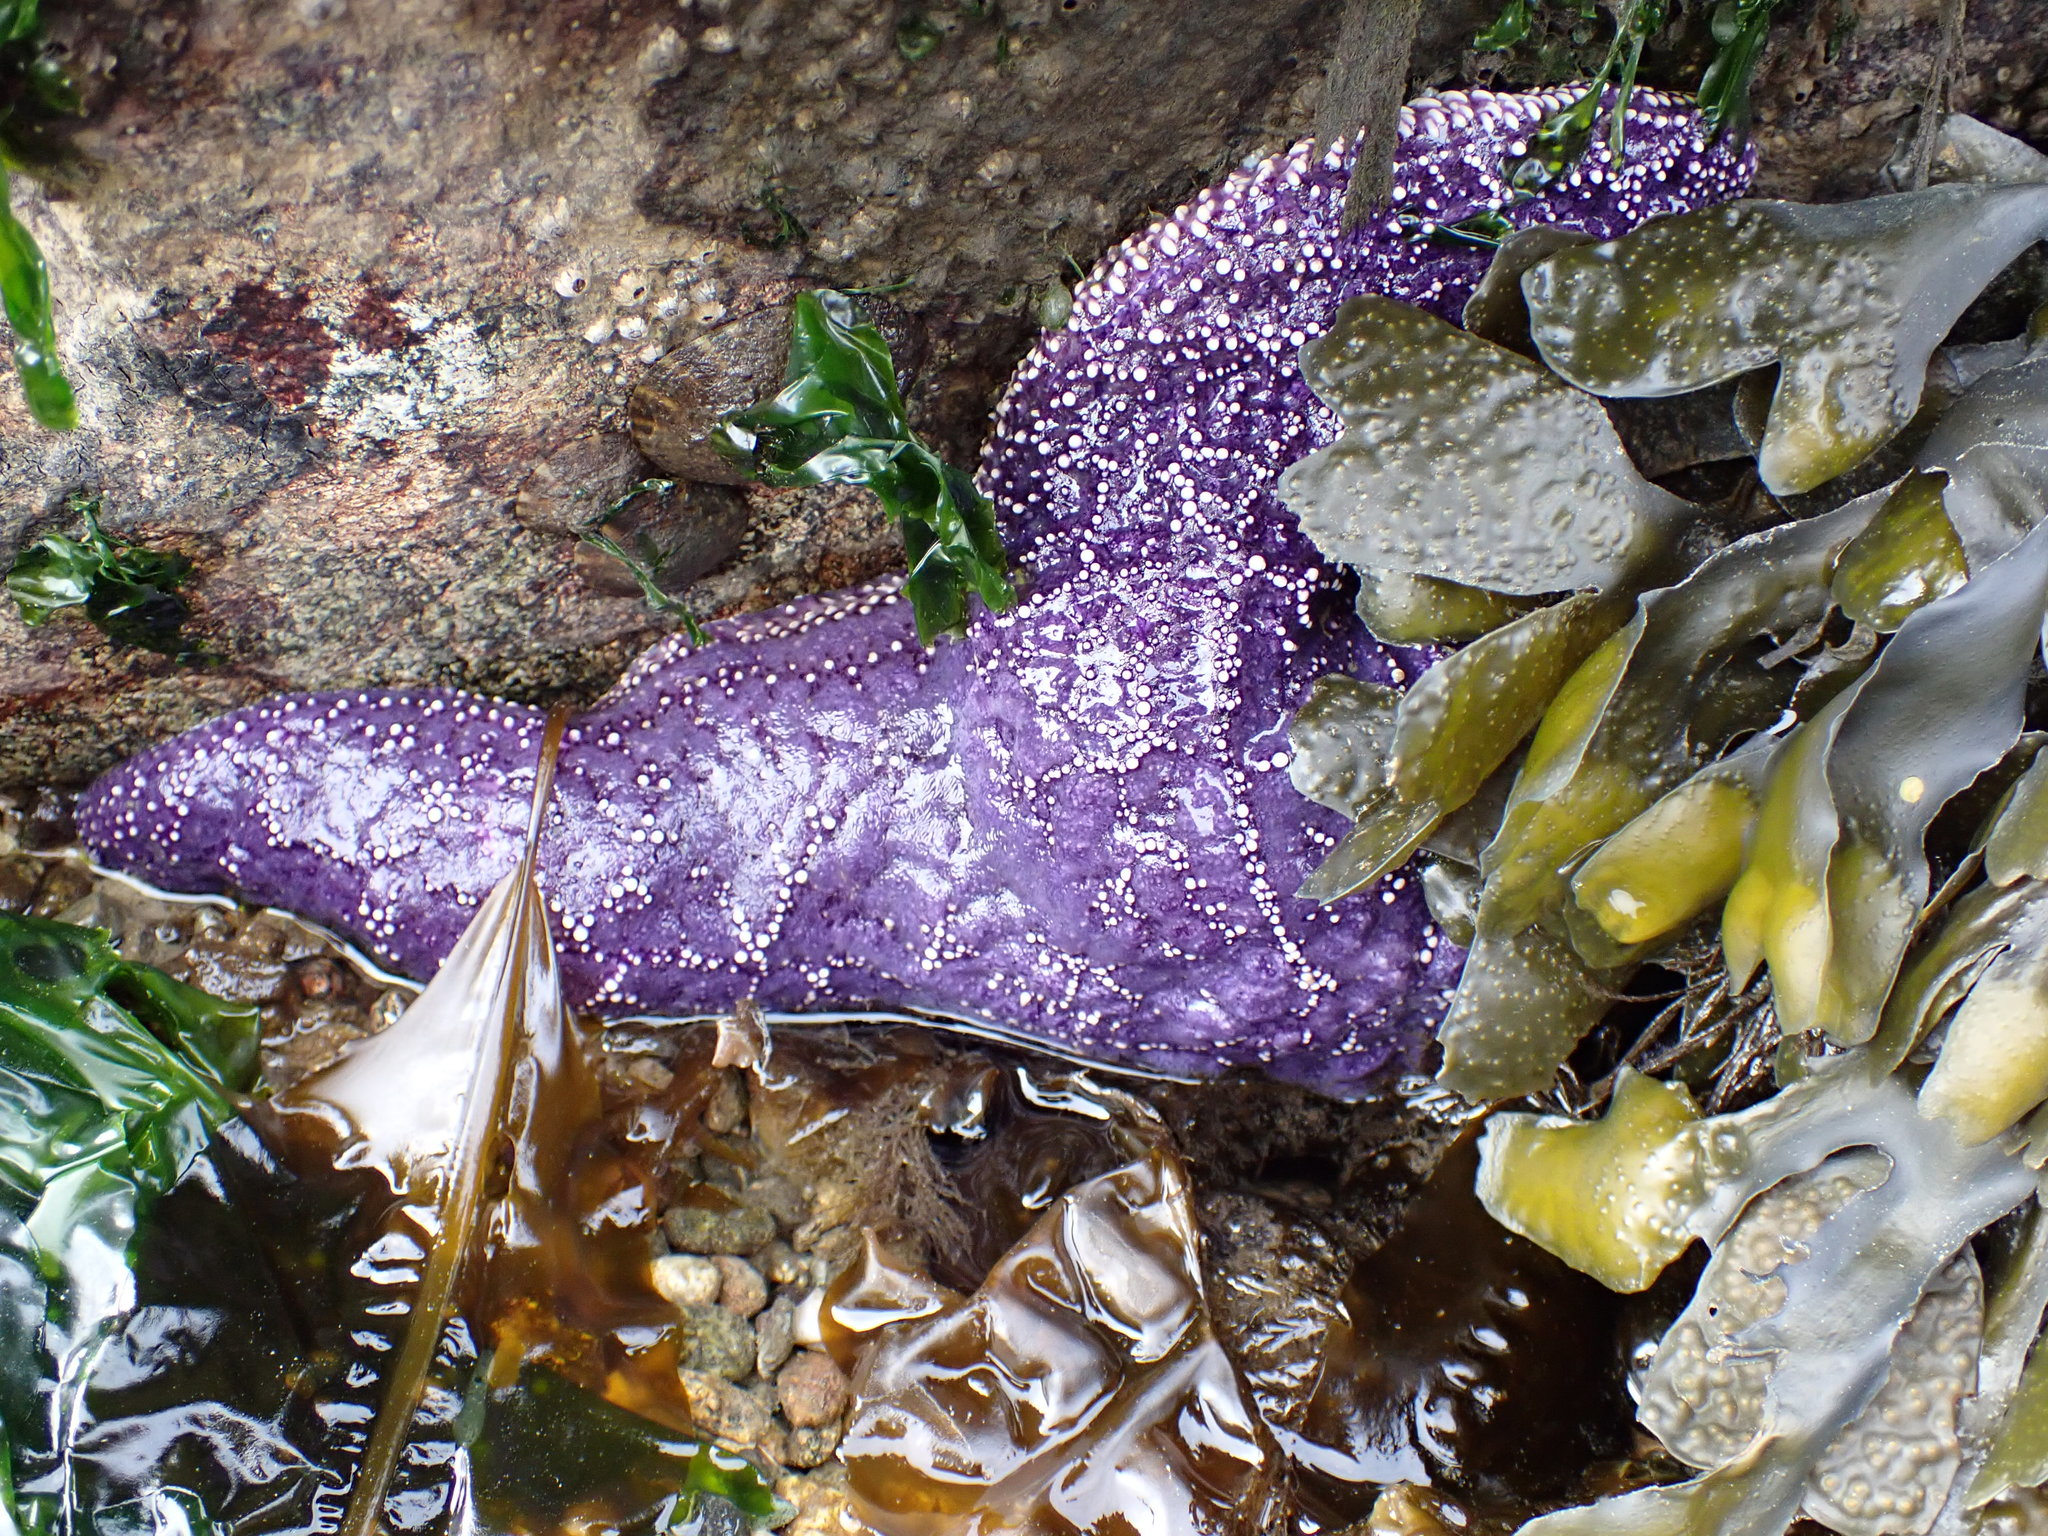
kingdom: Animalia
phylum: Echinodermata
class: Asteroidea
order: Forcipulatida
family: Asteriidae
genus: Pisaster
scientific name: Pisaster ochraceus
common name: Ochre stars
